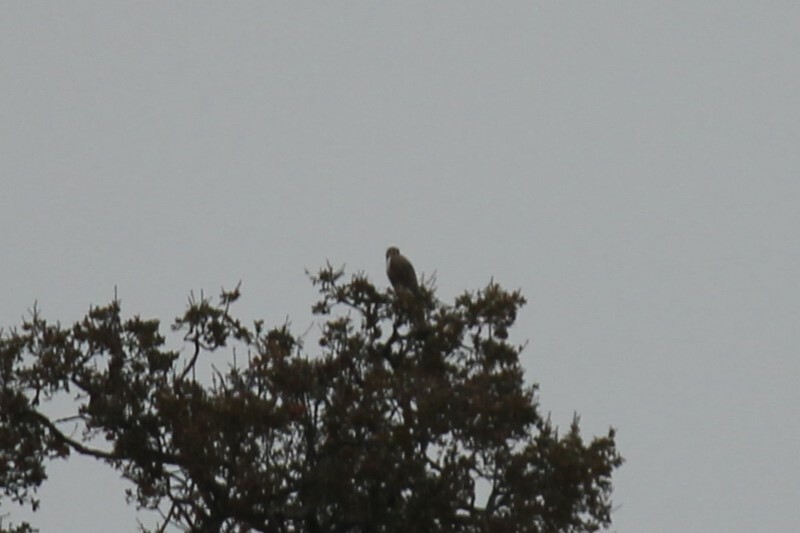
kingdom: Animalia
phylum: Chordata
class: Aves
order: Accipitriformes
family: Accipitridae
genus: Buteo
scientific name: Buteo regalis
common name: Ferruginous hawk
